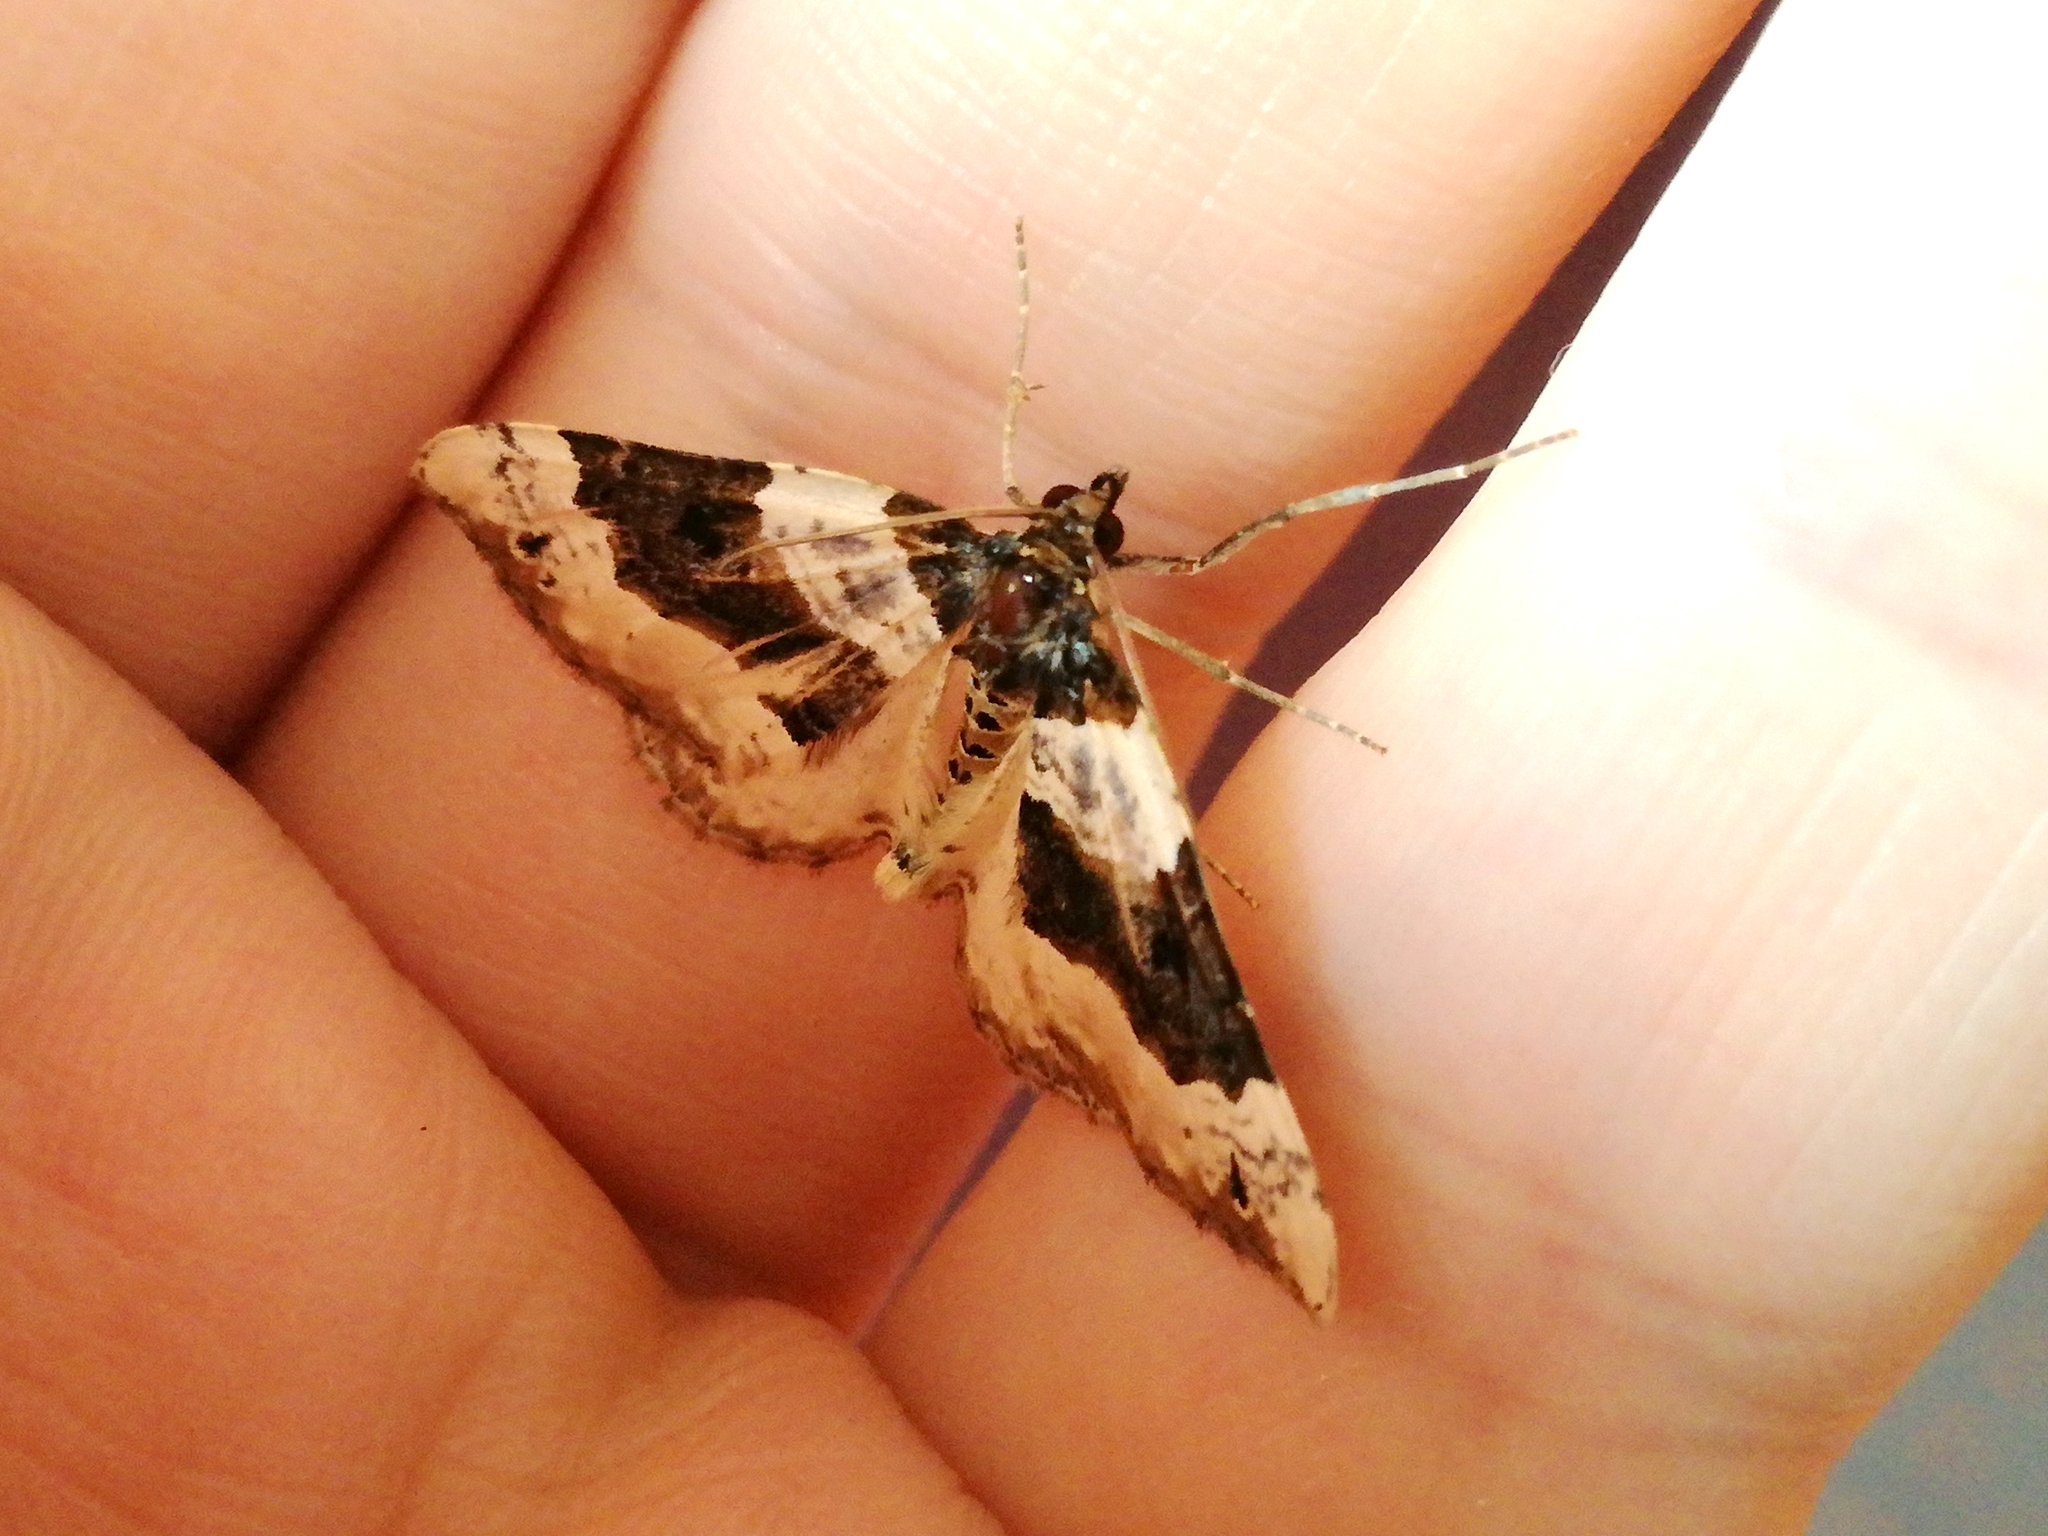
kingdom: Animalia
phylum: Arthropoda
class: Insecta
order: Lepidoptera
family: Geometridae
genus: Cosmorhoe
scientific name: Cosmorhoe ocellata
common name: Purple bar
